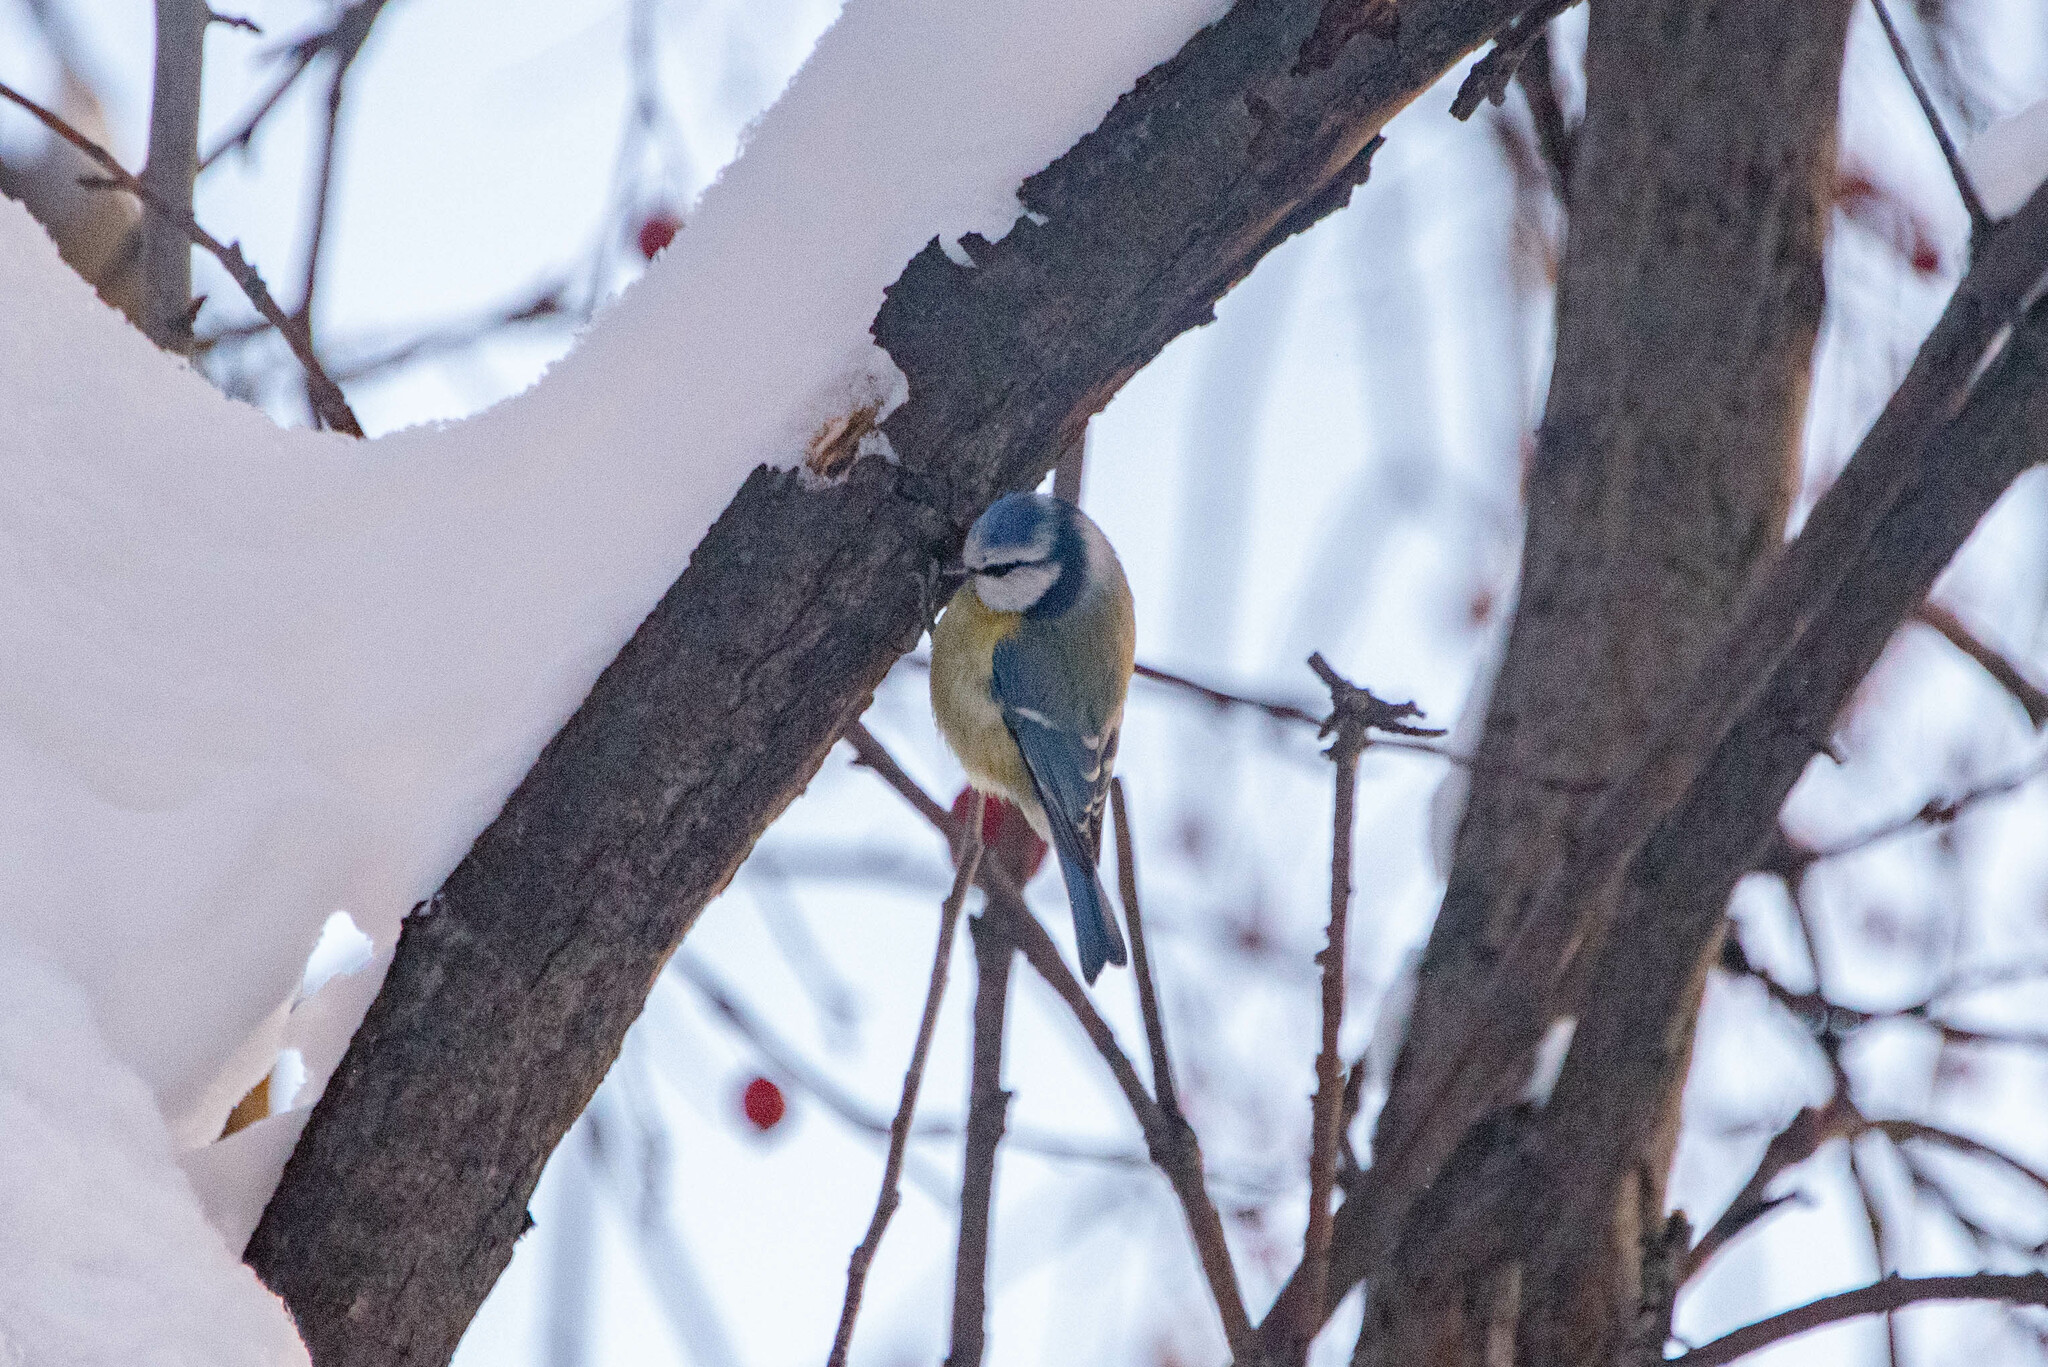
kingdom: Animalia
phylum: Chordata
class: Aves
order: Passeriformes
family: Paridae
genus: Cyanistes
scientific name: Cyanistes caeruleus
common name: Eurasian blue tit
